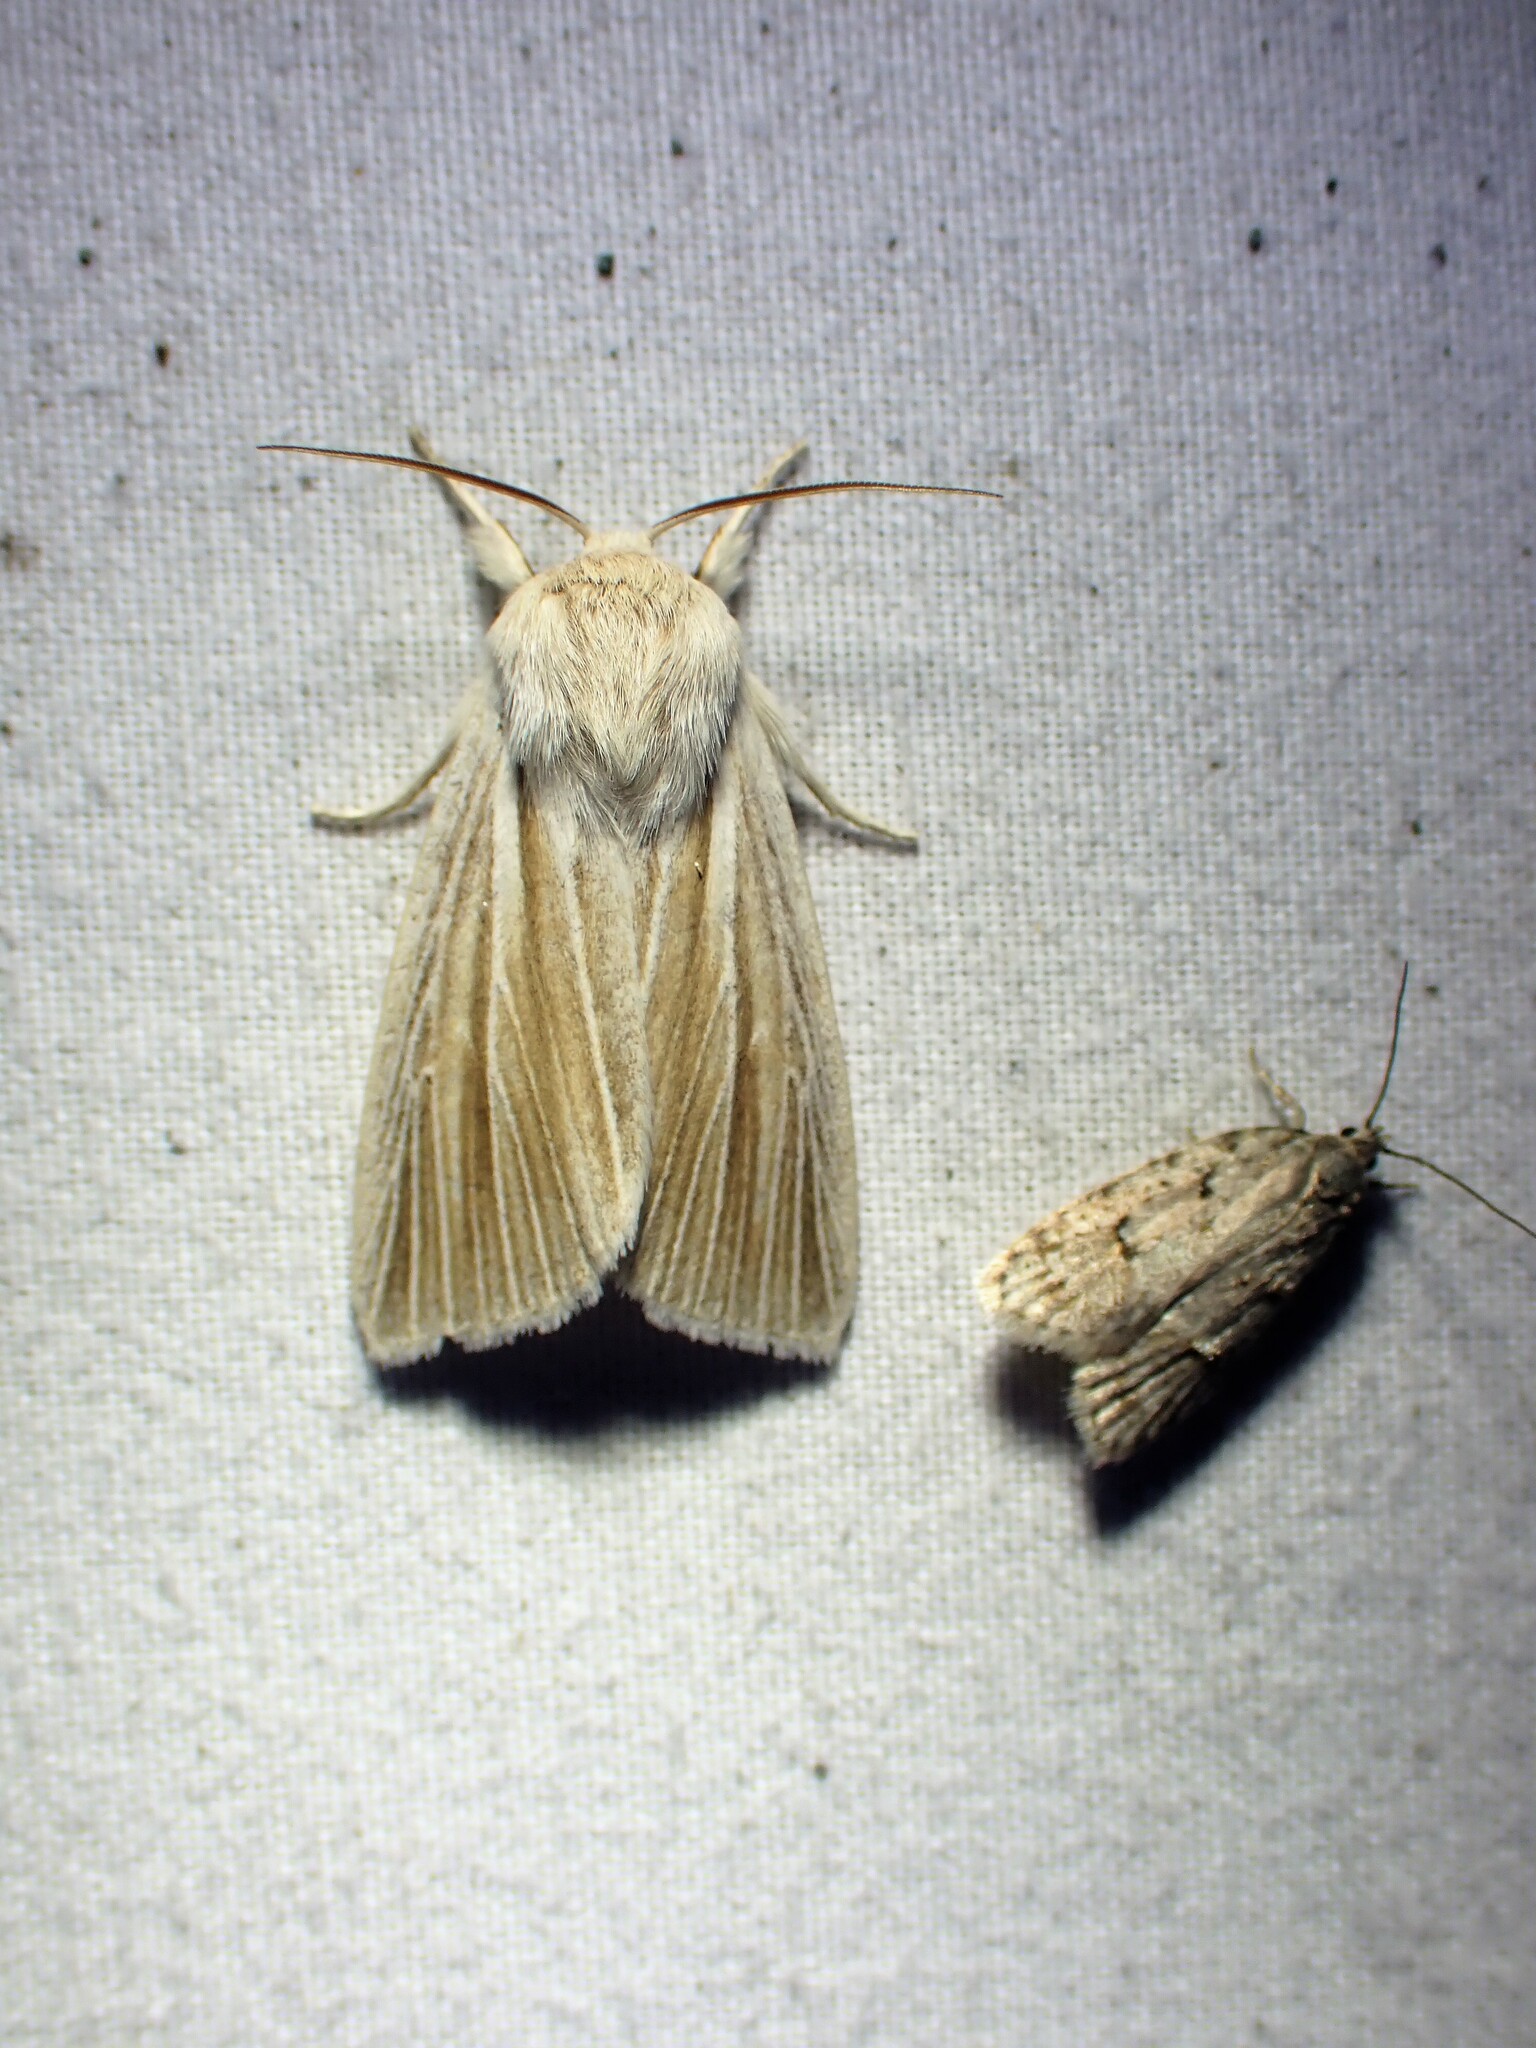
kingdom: Animalia
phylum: Arthropoda
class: Insecta
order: Lepidoptera
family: Noctuidae
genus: Acronicta
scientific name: Acronicta insularis
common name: Henry's marsh moth
